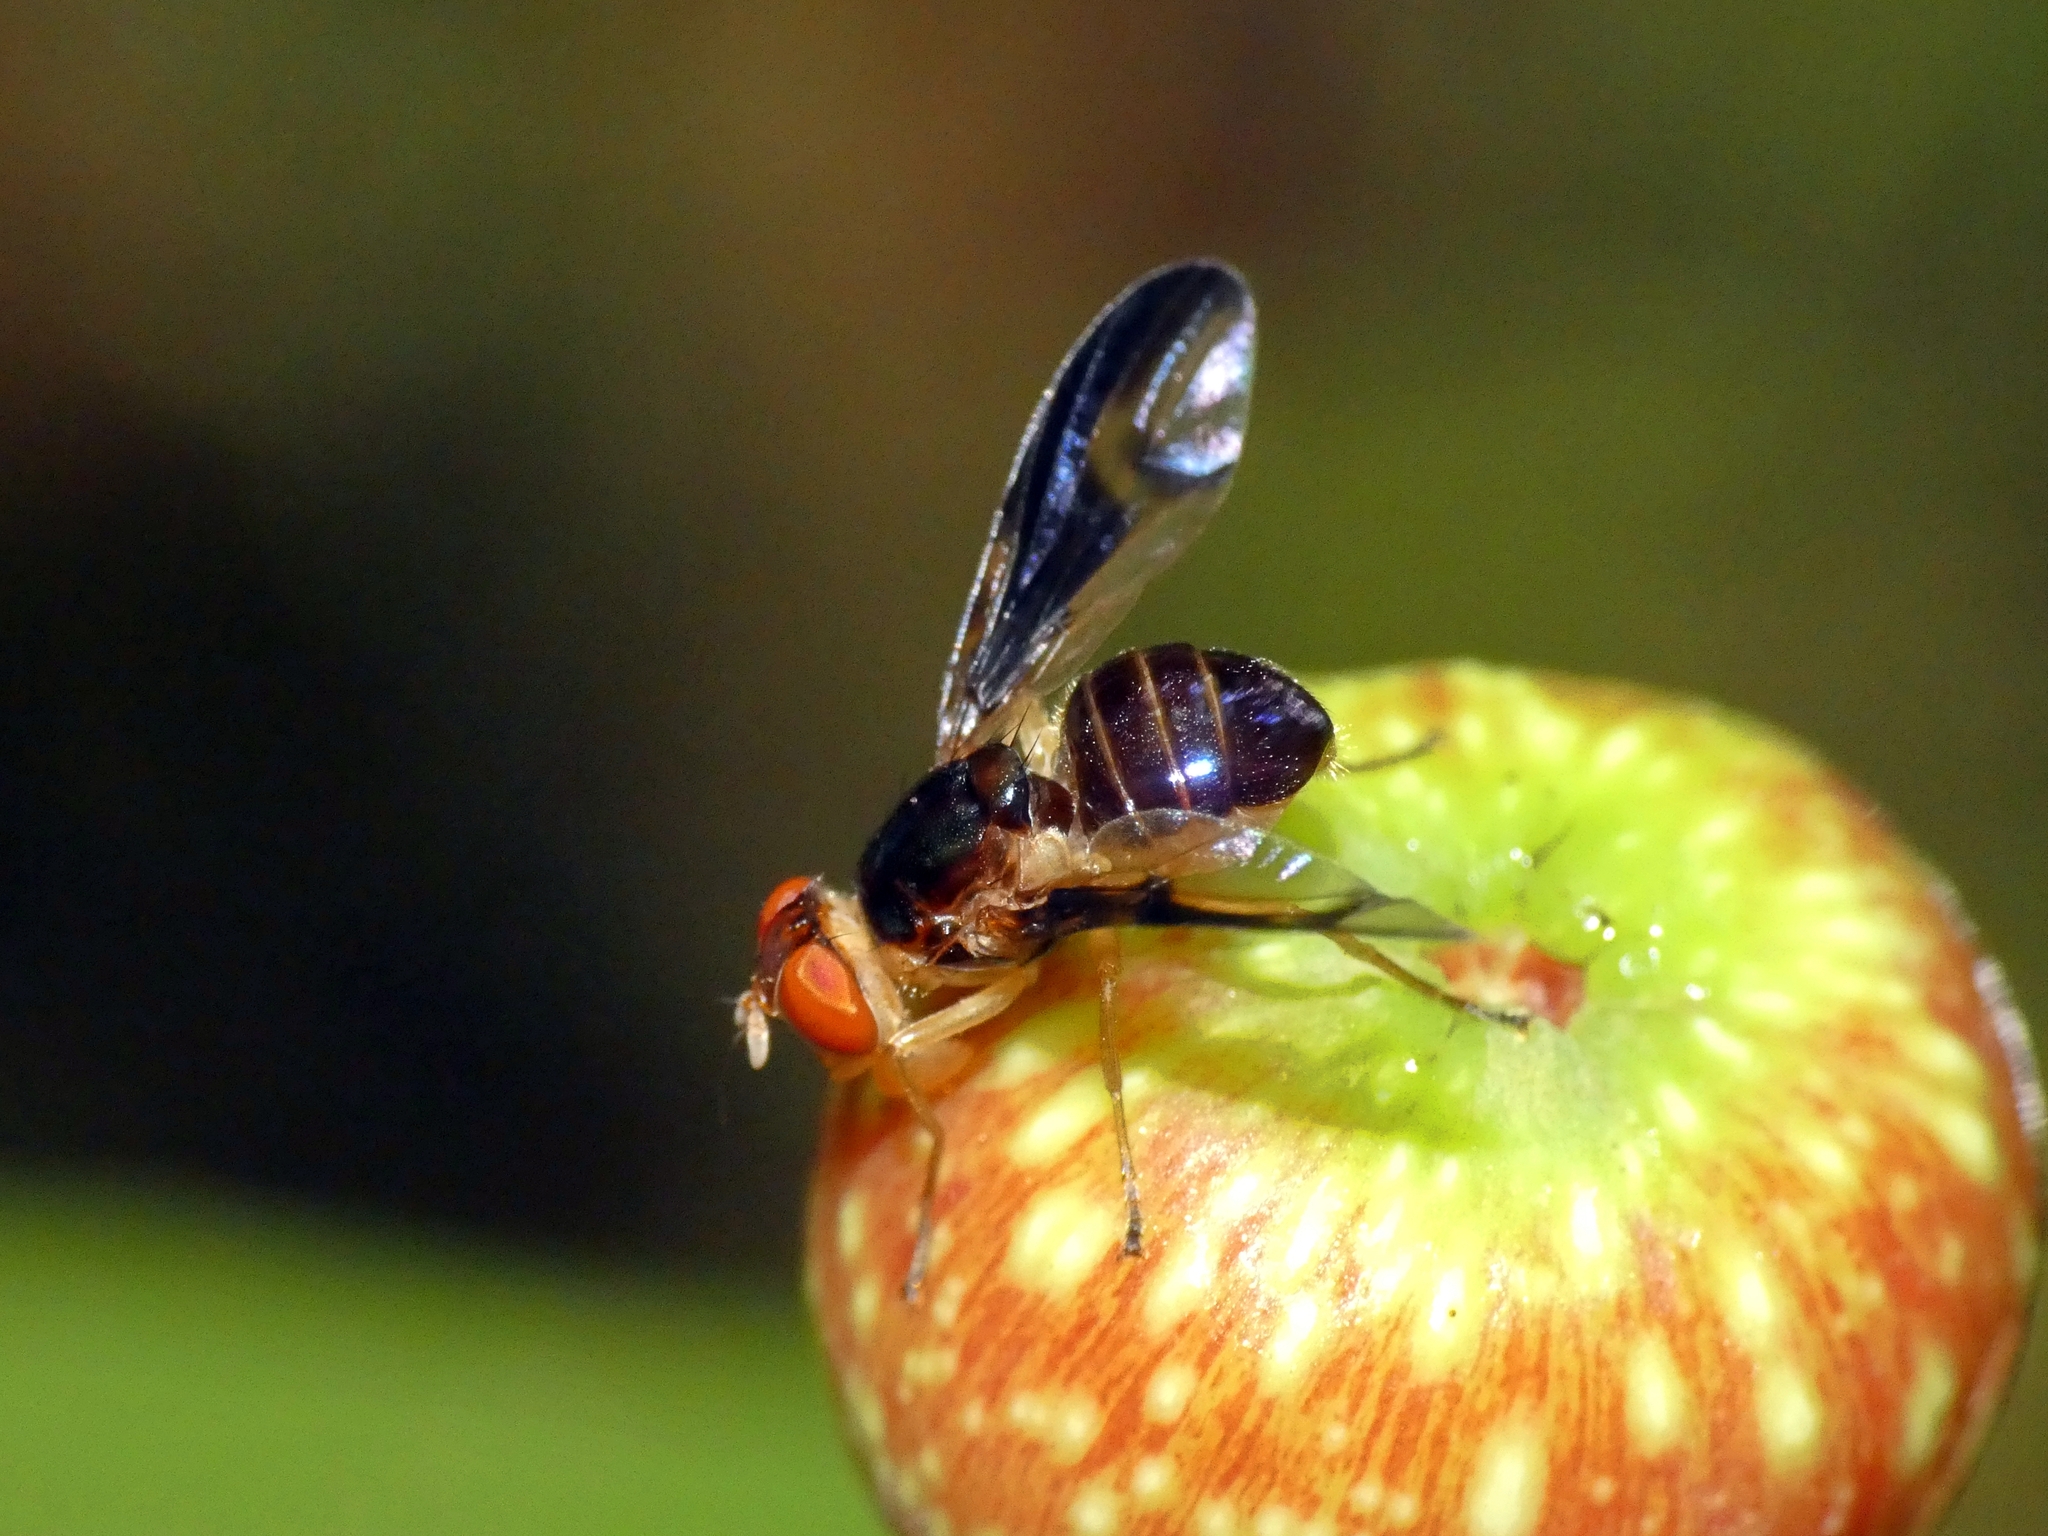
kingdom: Animalia
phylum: Arthropoda
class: Insecta
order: Diptera
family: Platystomatidae
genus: Lamprogaster
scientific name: Lamprogaster stenoparia
